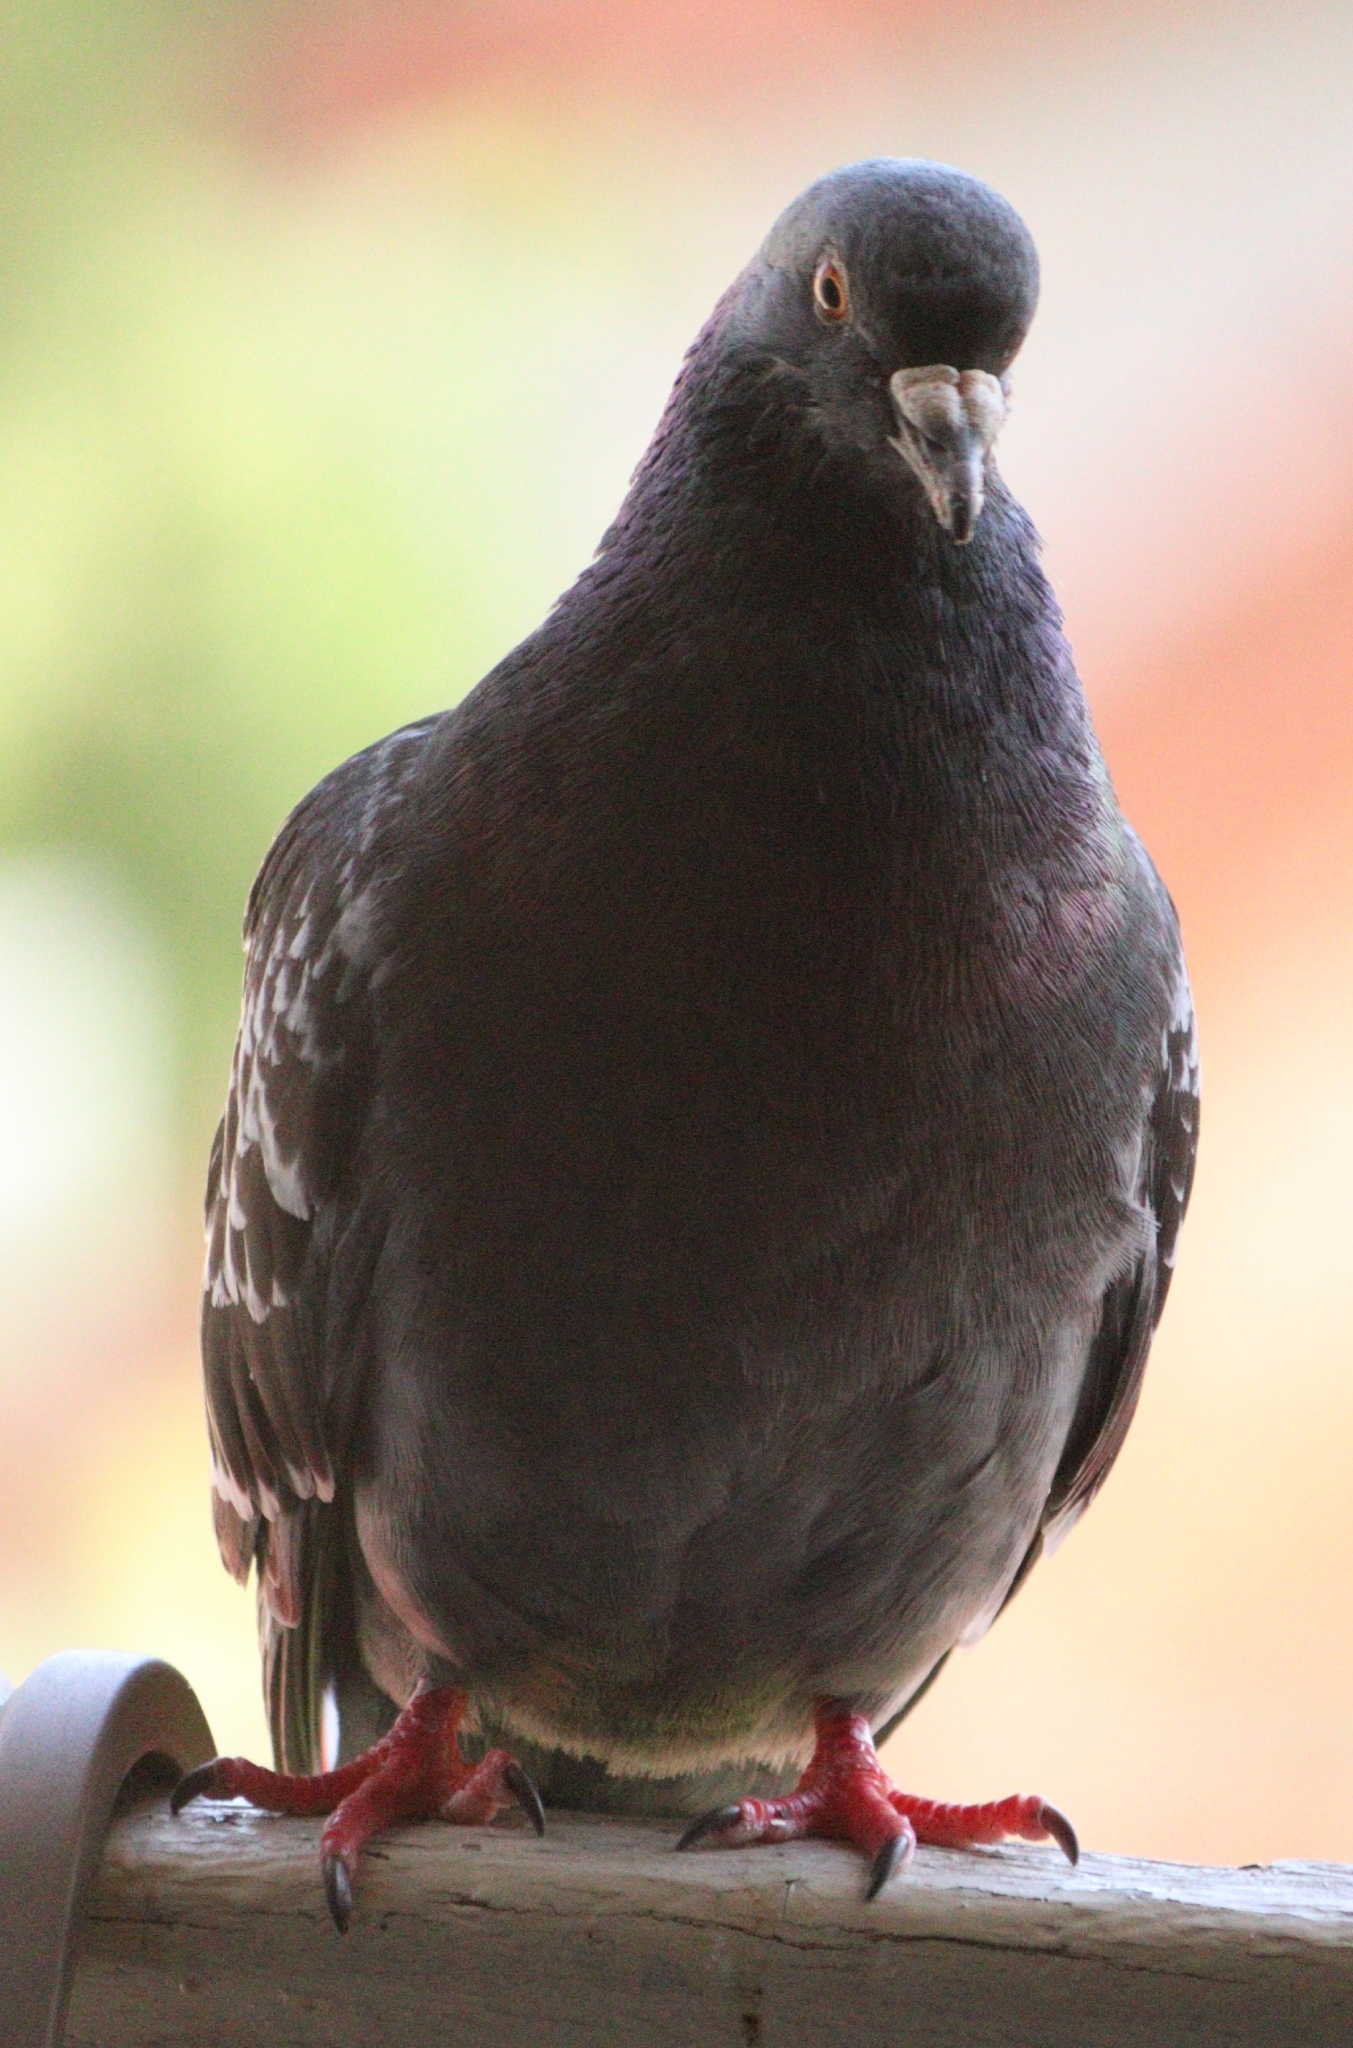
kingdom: Animalia
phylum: Chordata
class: Aves
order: Columbiformes
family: Columbidae
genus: Columba
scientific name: Columba livia
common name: Rock pigeon
